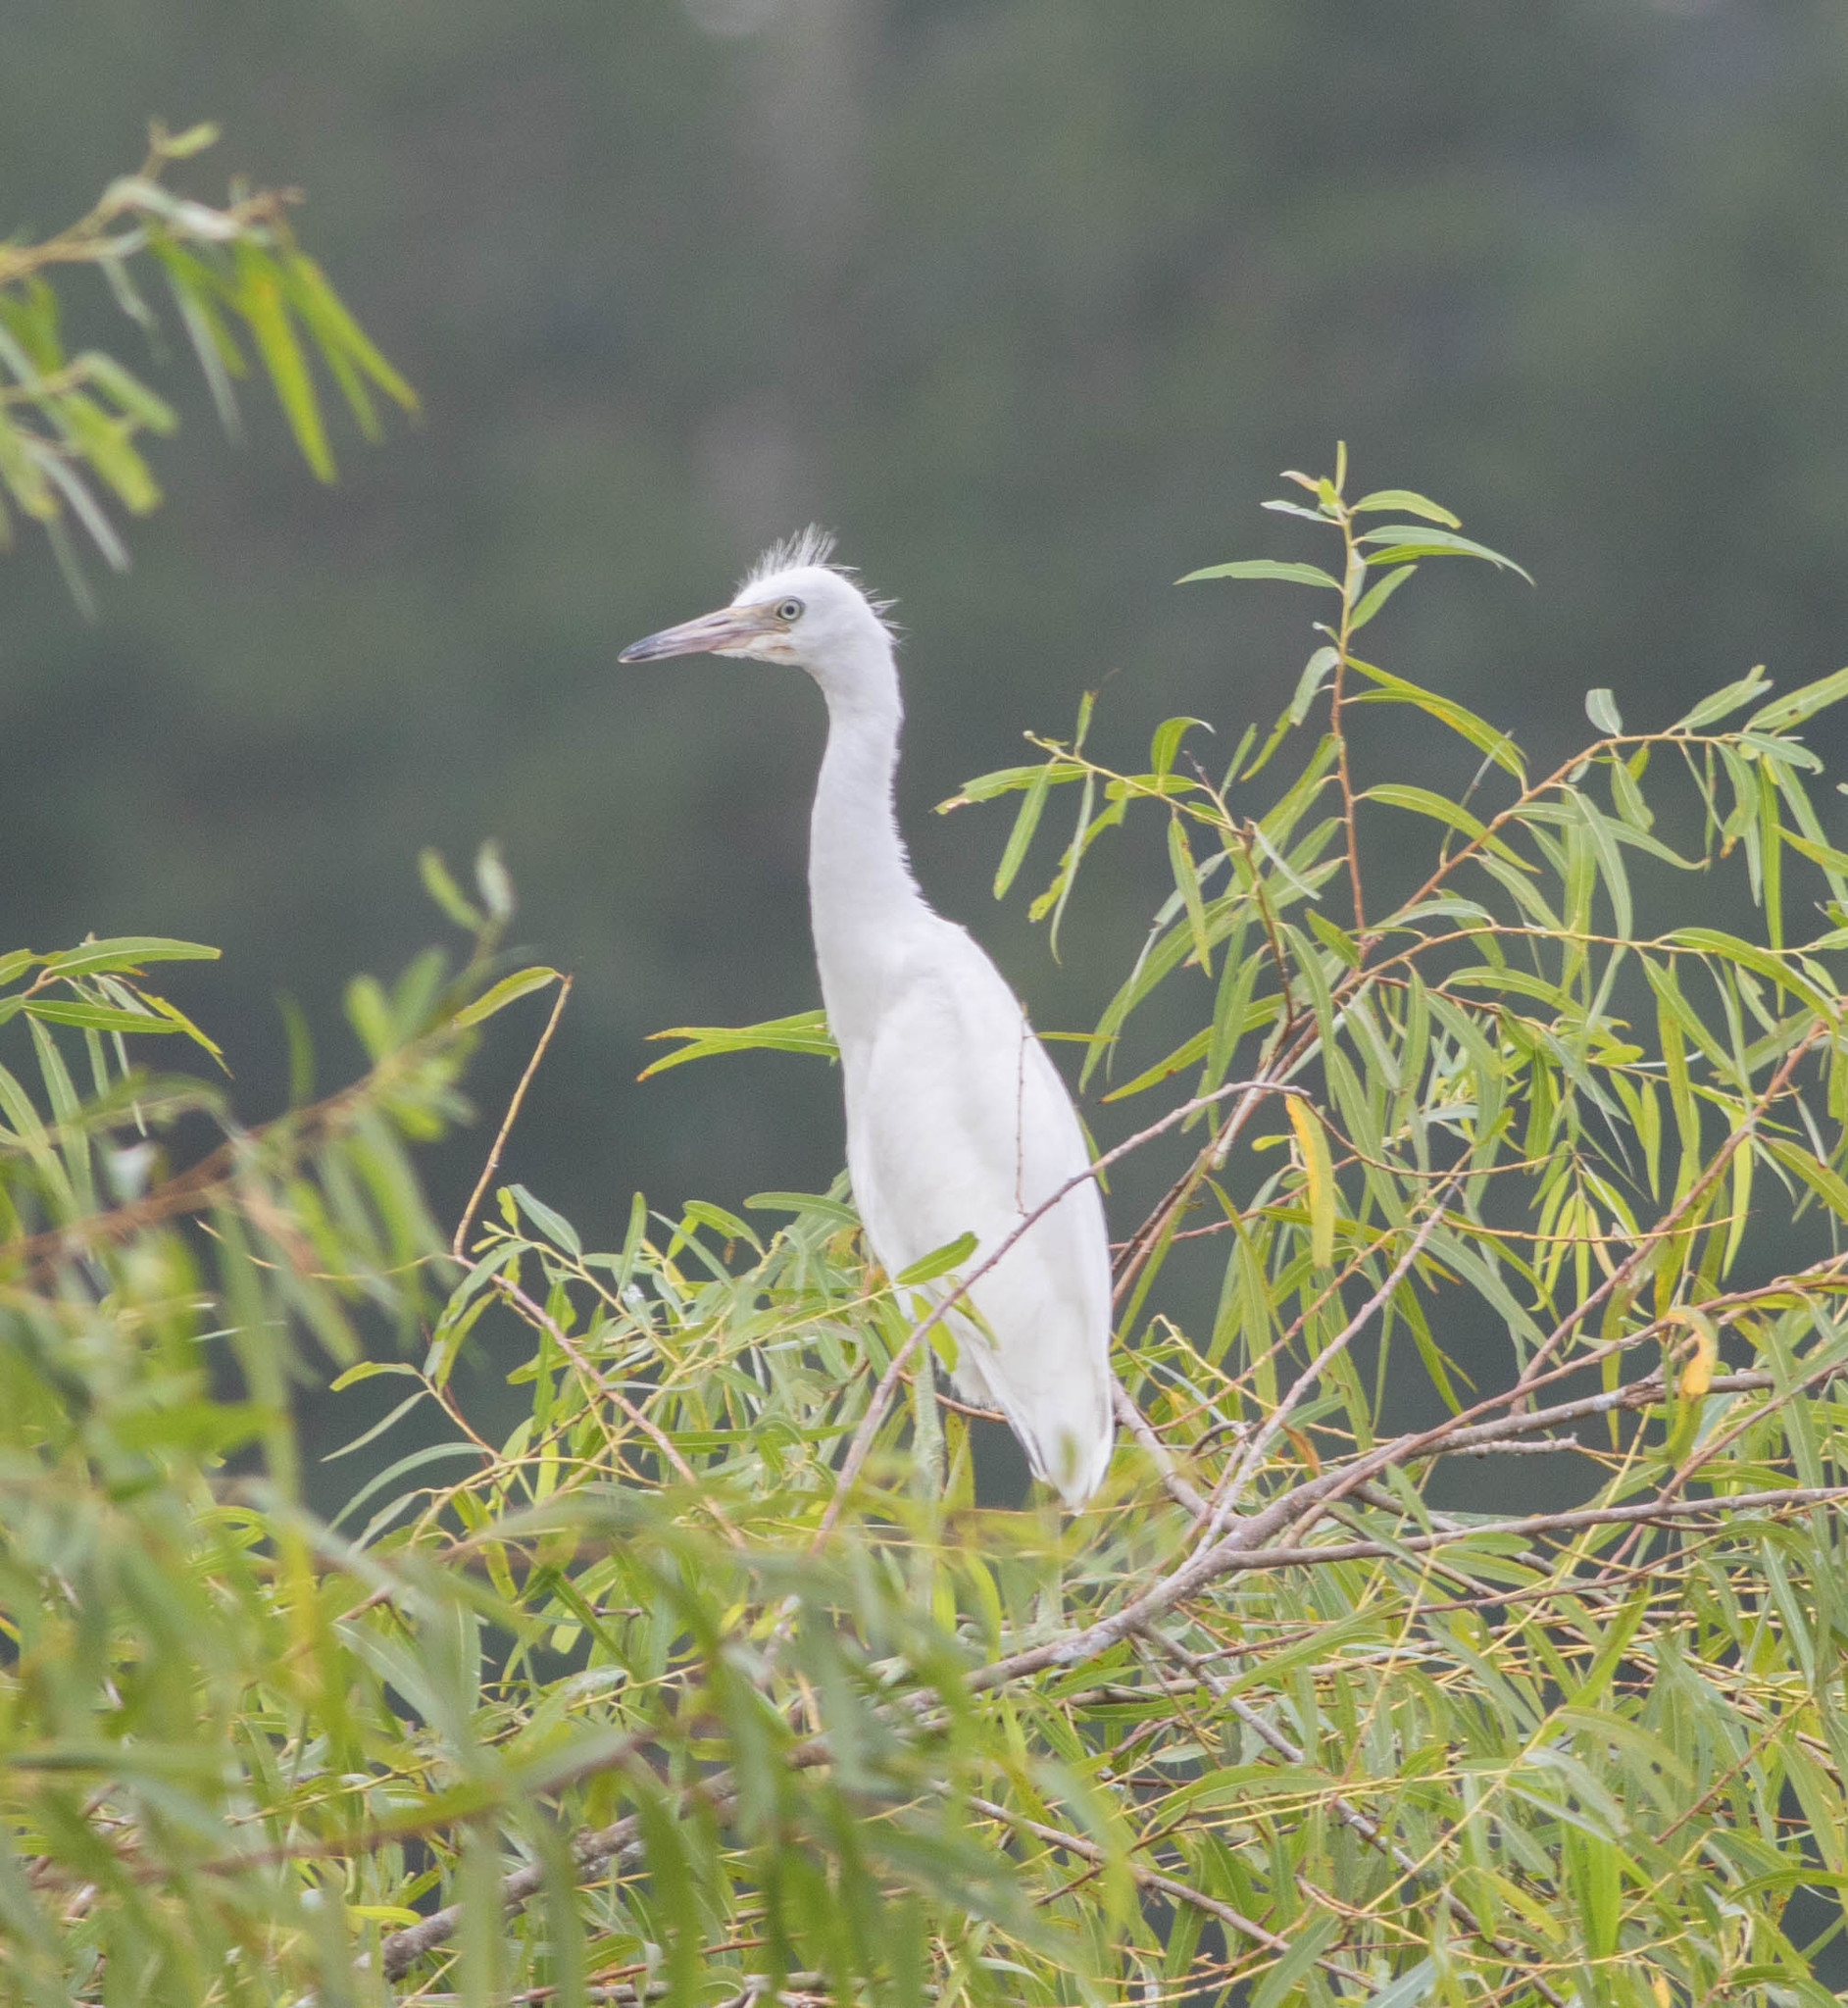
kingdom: Animalia
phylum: Chordata
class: Aves
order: Pelecaniformes
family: Ardeidae
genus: Egretta
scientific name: Egretta caerulea
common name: Little blue heron
